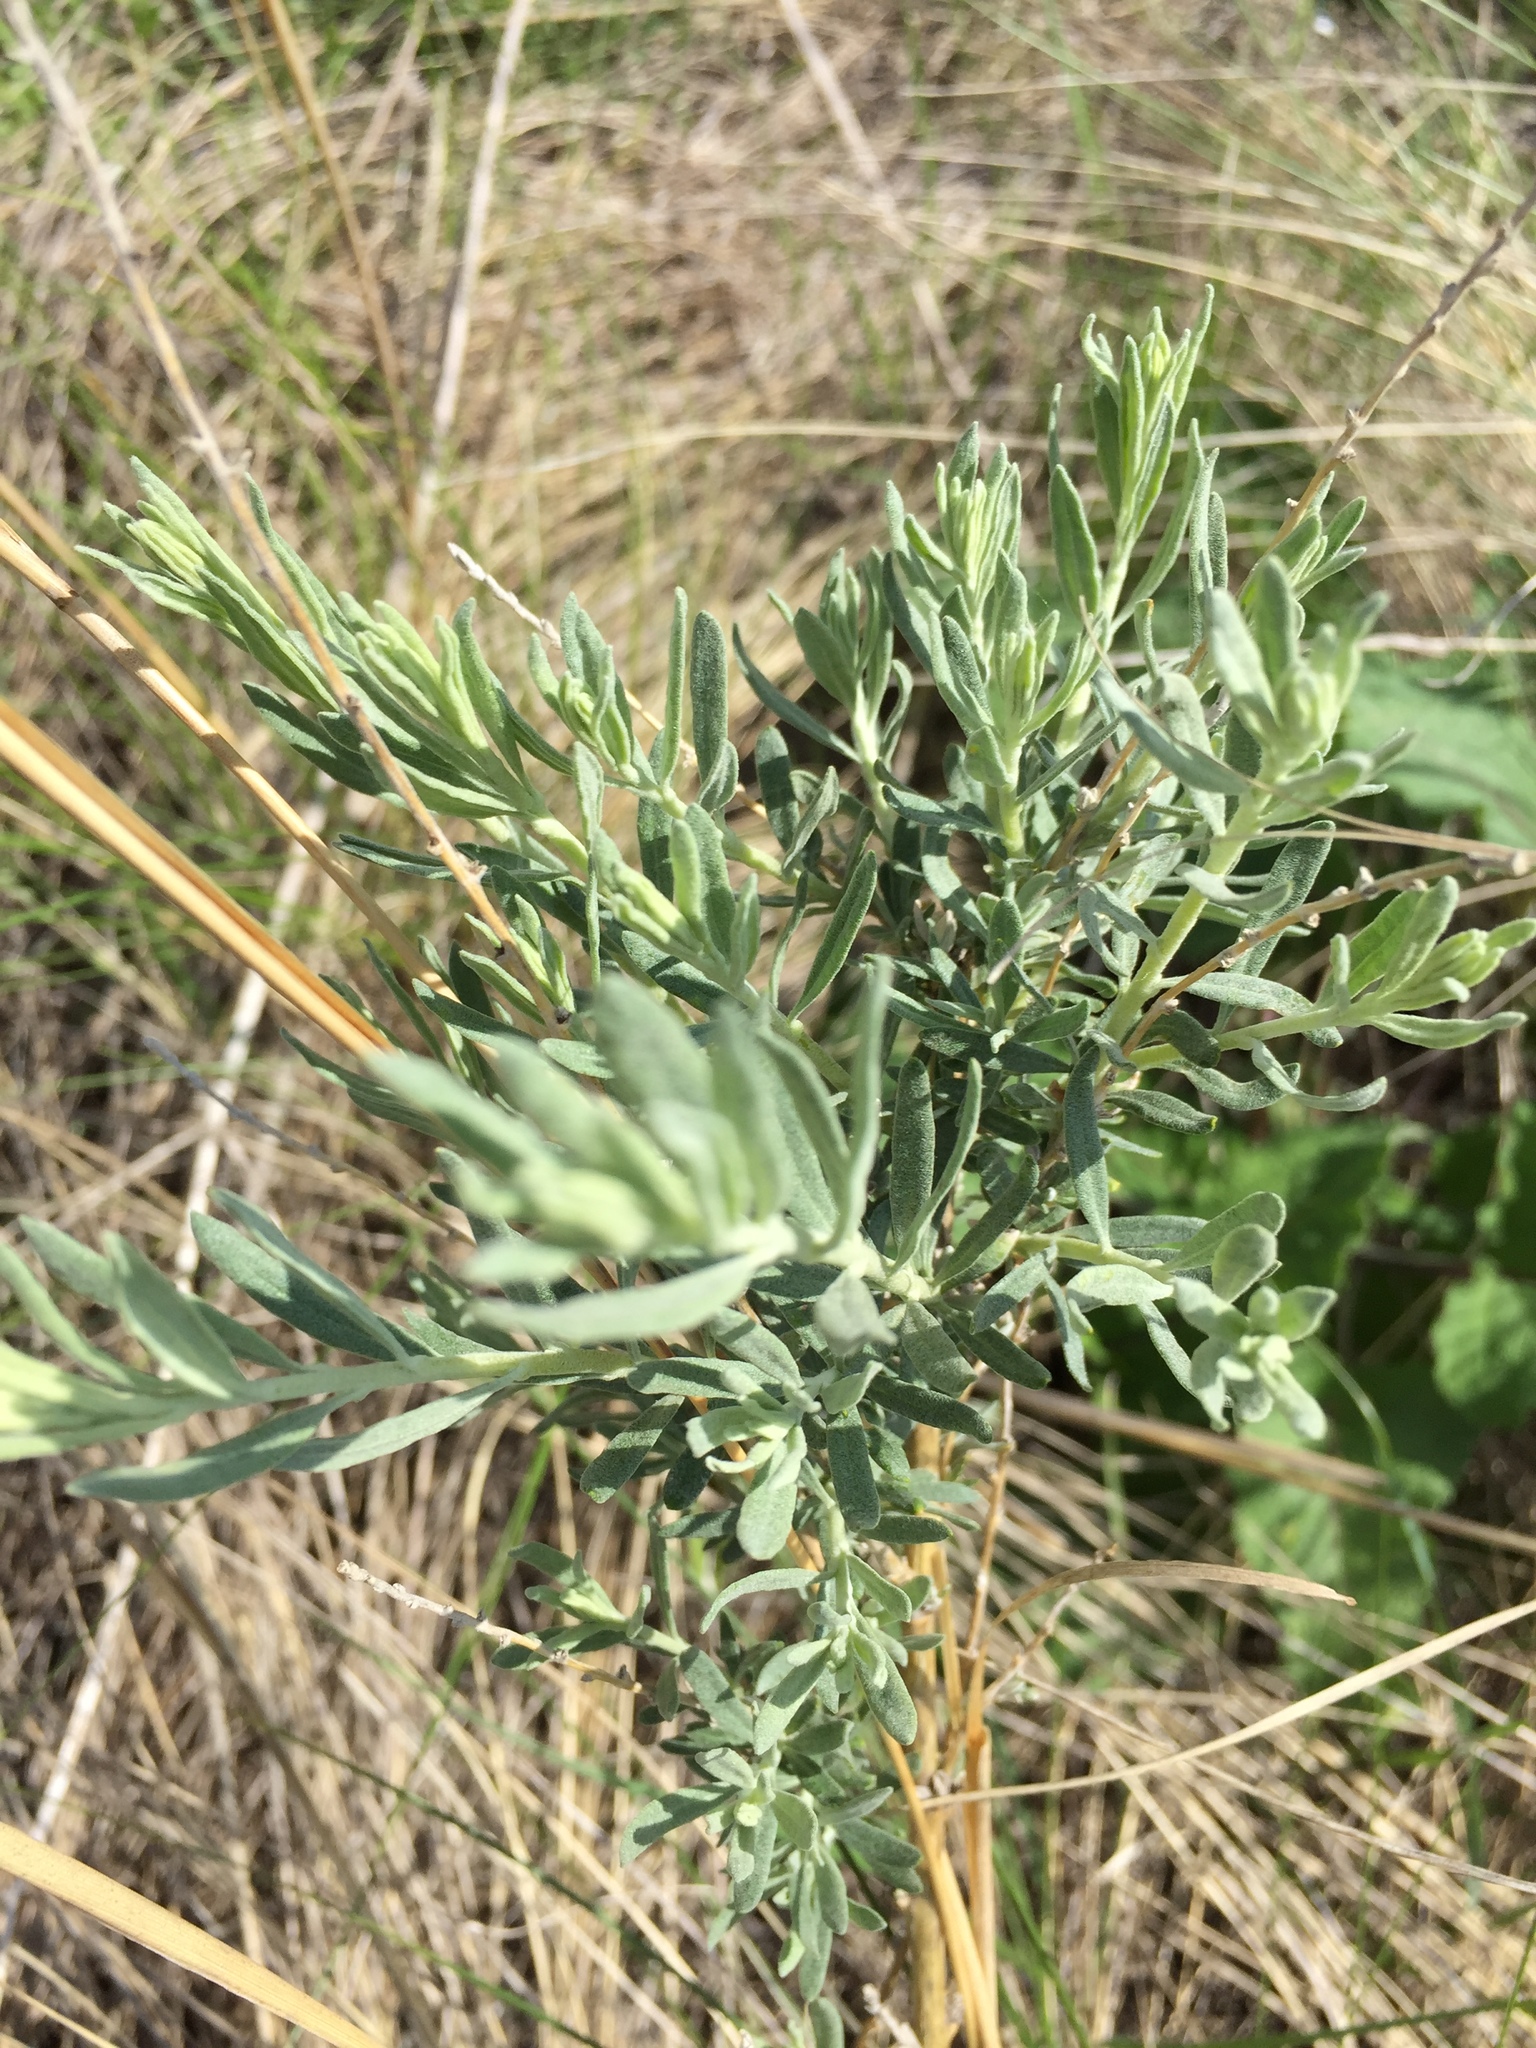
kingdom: Plantae
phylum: Tracheophyta
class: Magnoliopsida
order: Caryophyllales
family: Amaranthaceae
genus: Krascheninnikovia
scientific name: Krascheninnikovia ceratoides
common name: Pamirian winterfat
